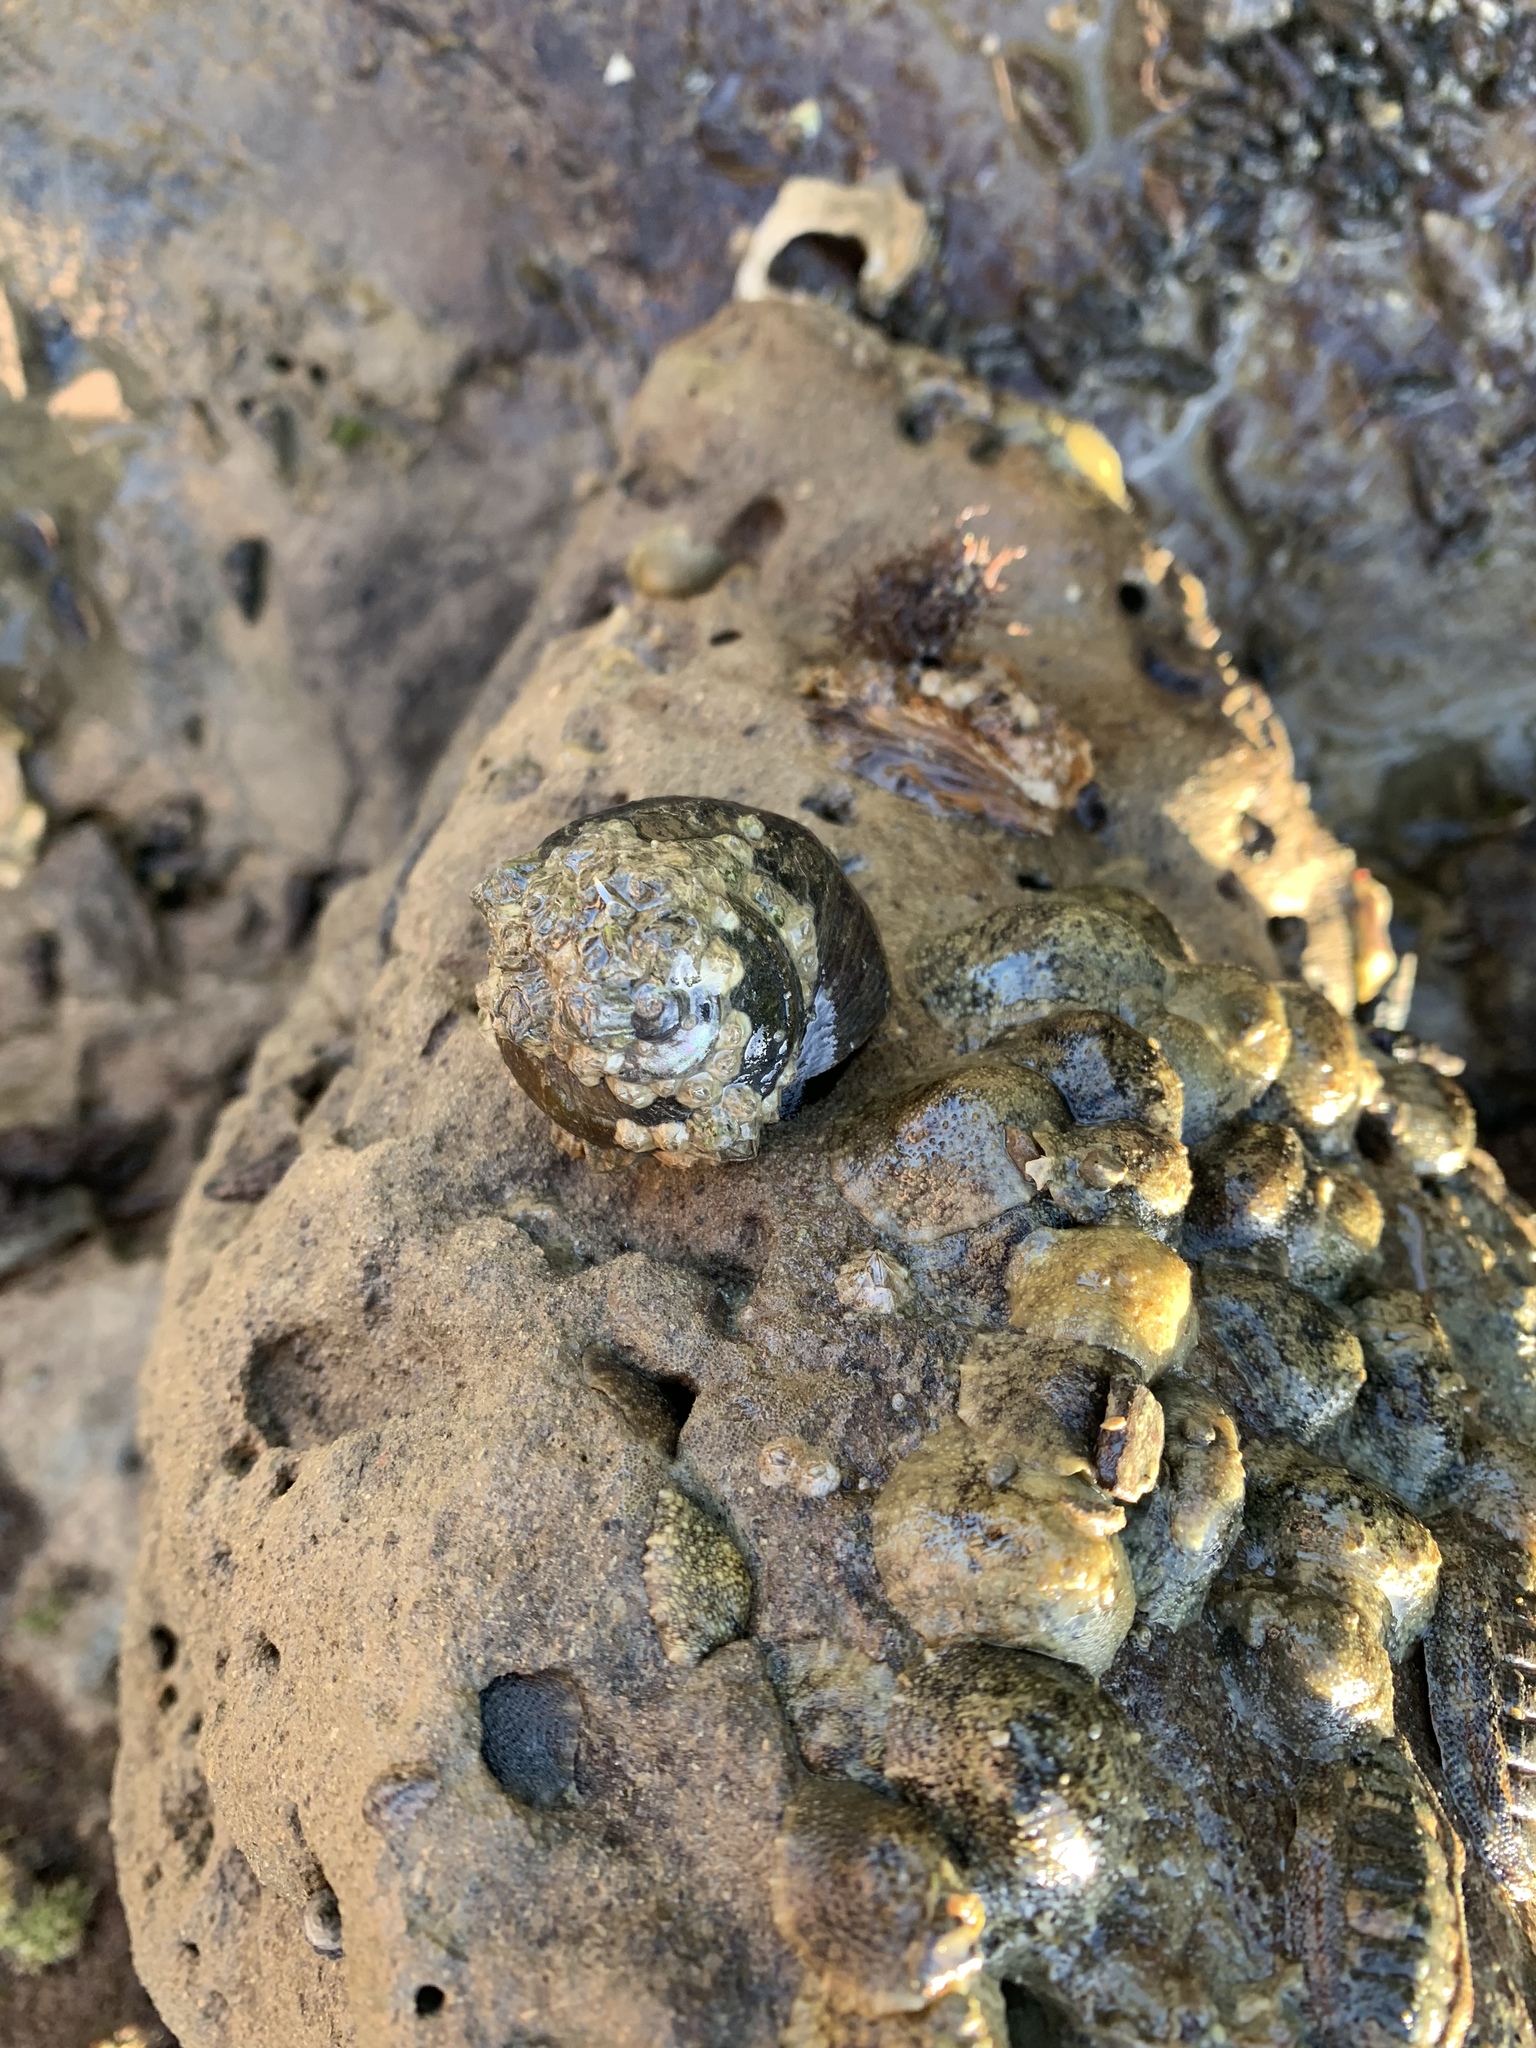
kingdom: Animalia
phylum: Mollusca
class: Gastropoda
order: Trochida
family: Turbinidae
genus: Lunella
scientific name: Lunella smaragda
